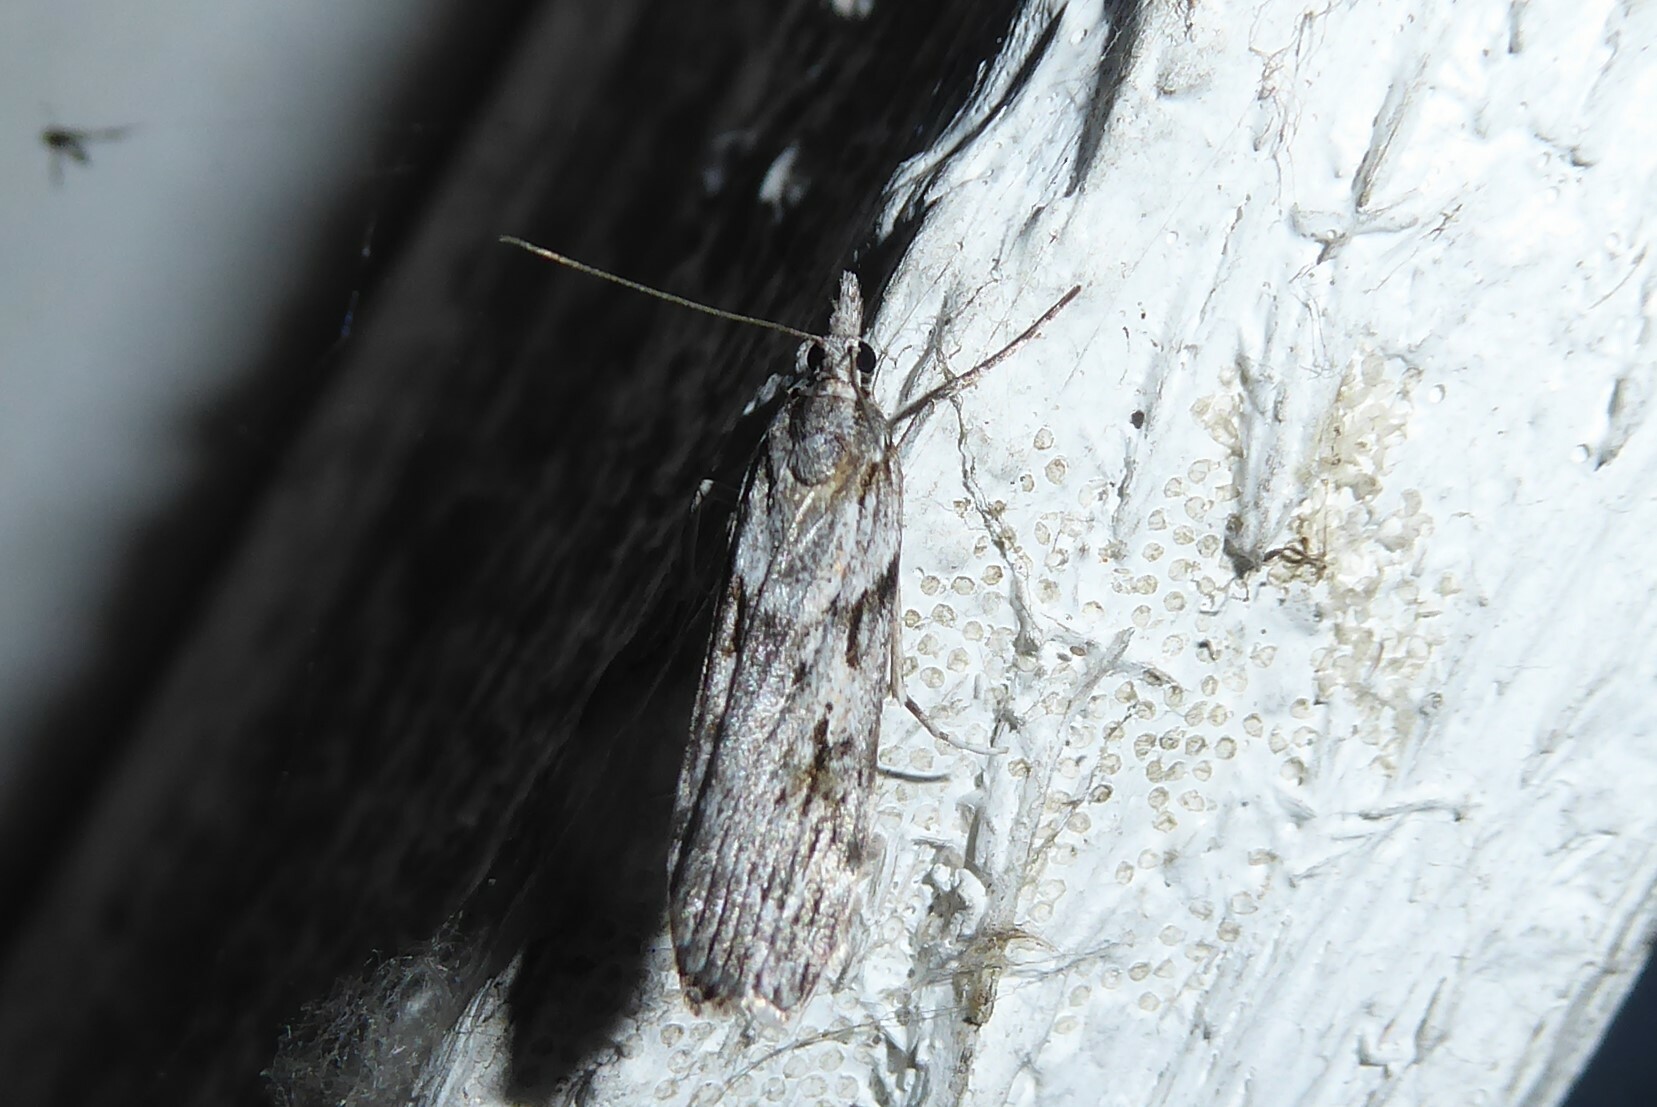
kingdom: Animalia
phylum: Arthropoda
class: Insecta
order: Lepidoptera
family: Crambidae
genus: Scoparia
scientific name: Scoparia halopis
